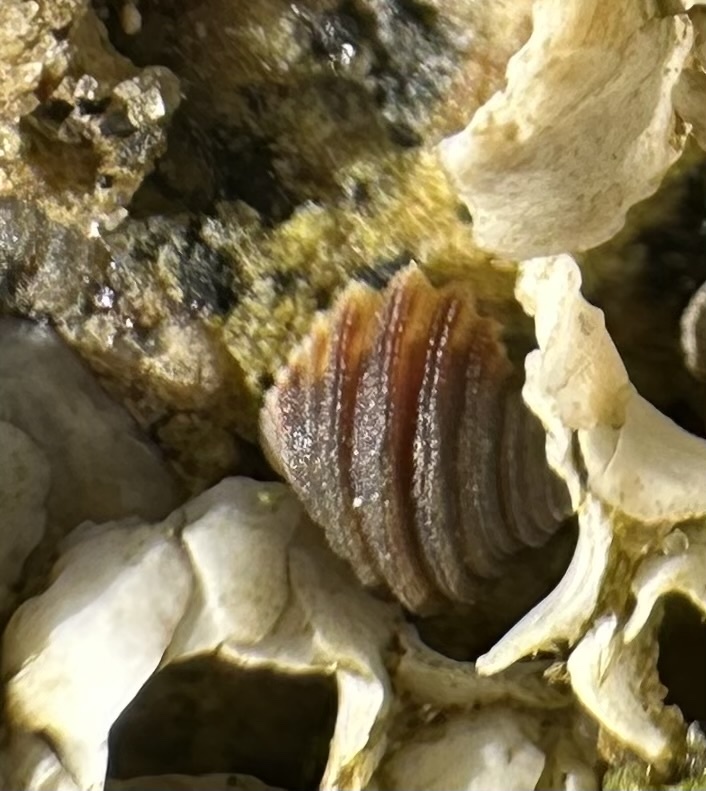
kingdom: Animalia
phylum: Mollusca
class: Gastropoda
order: Littorinimorpha
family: Littorinidae
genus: Littorina
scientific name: Littorina littorea
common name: Common periwinkle
